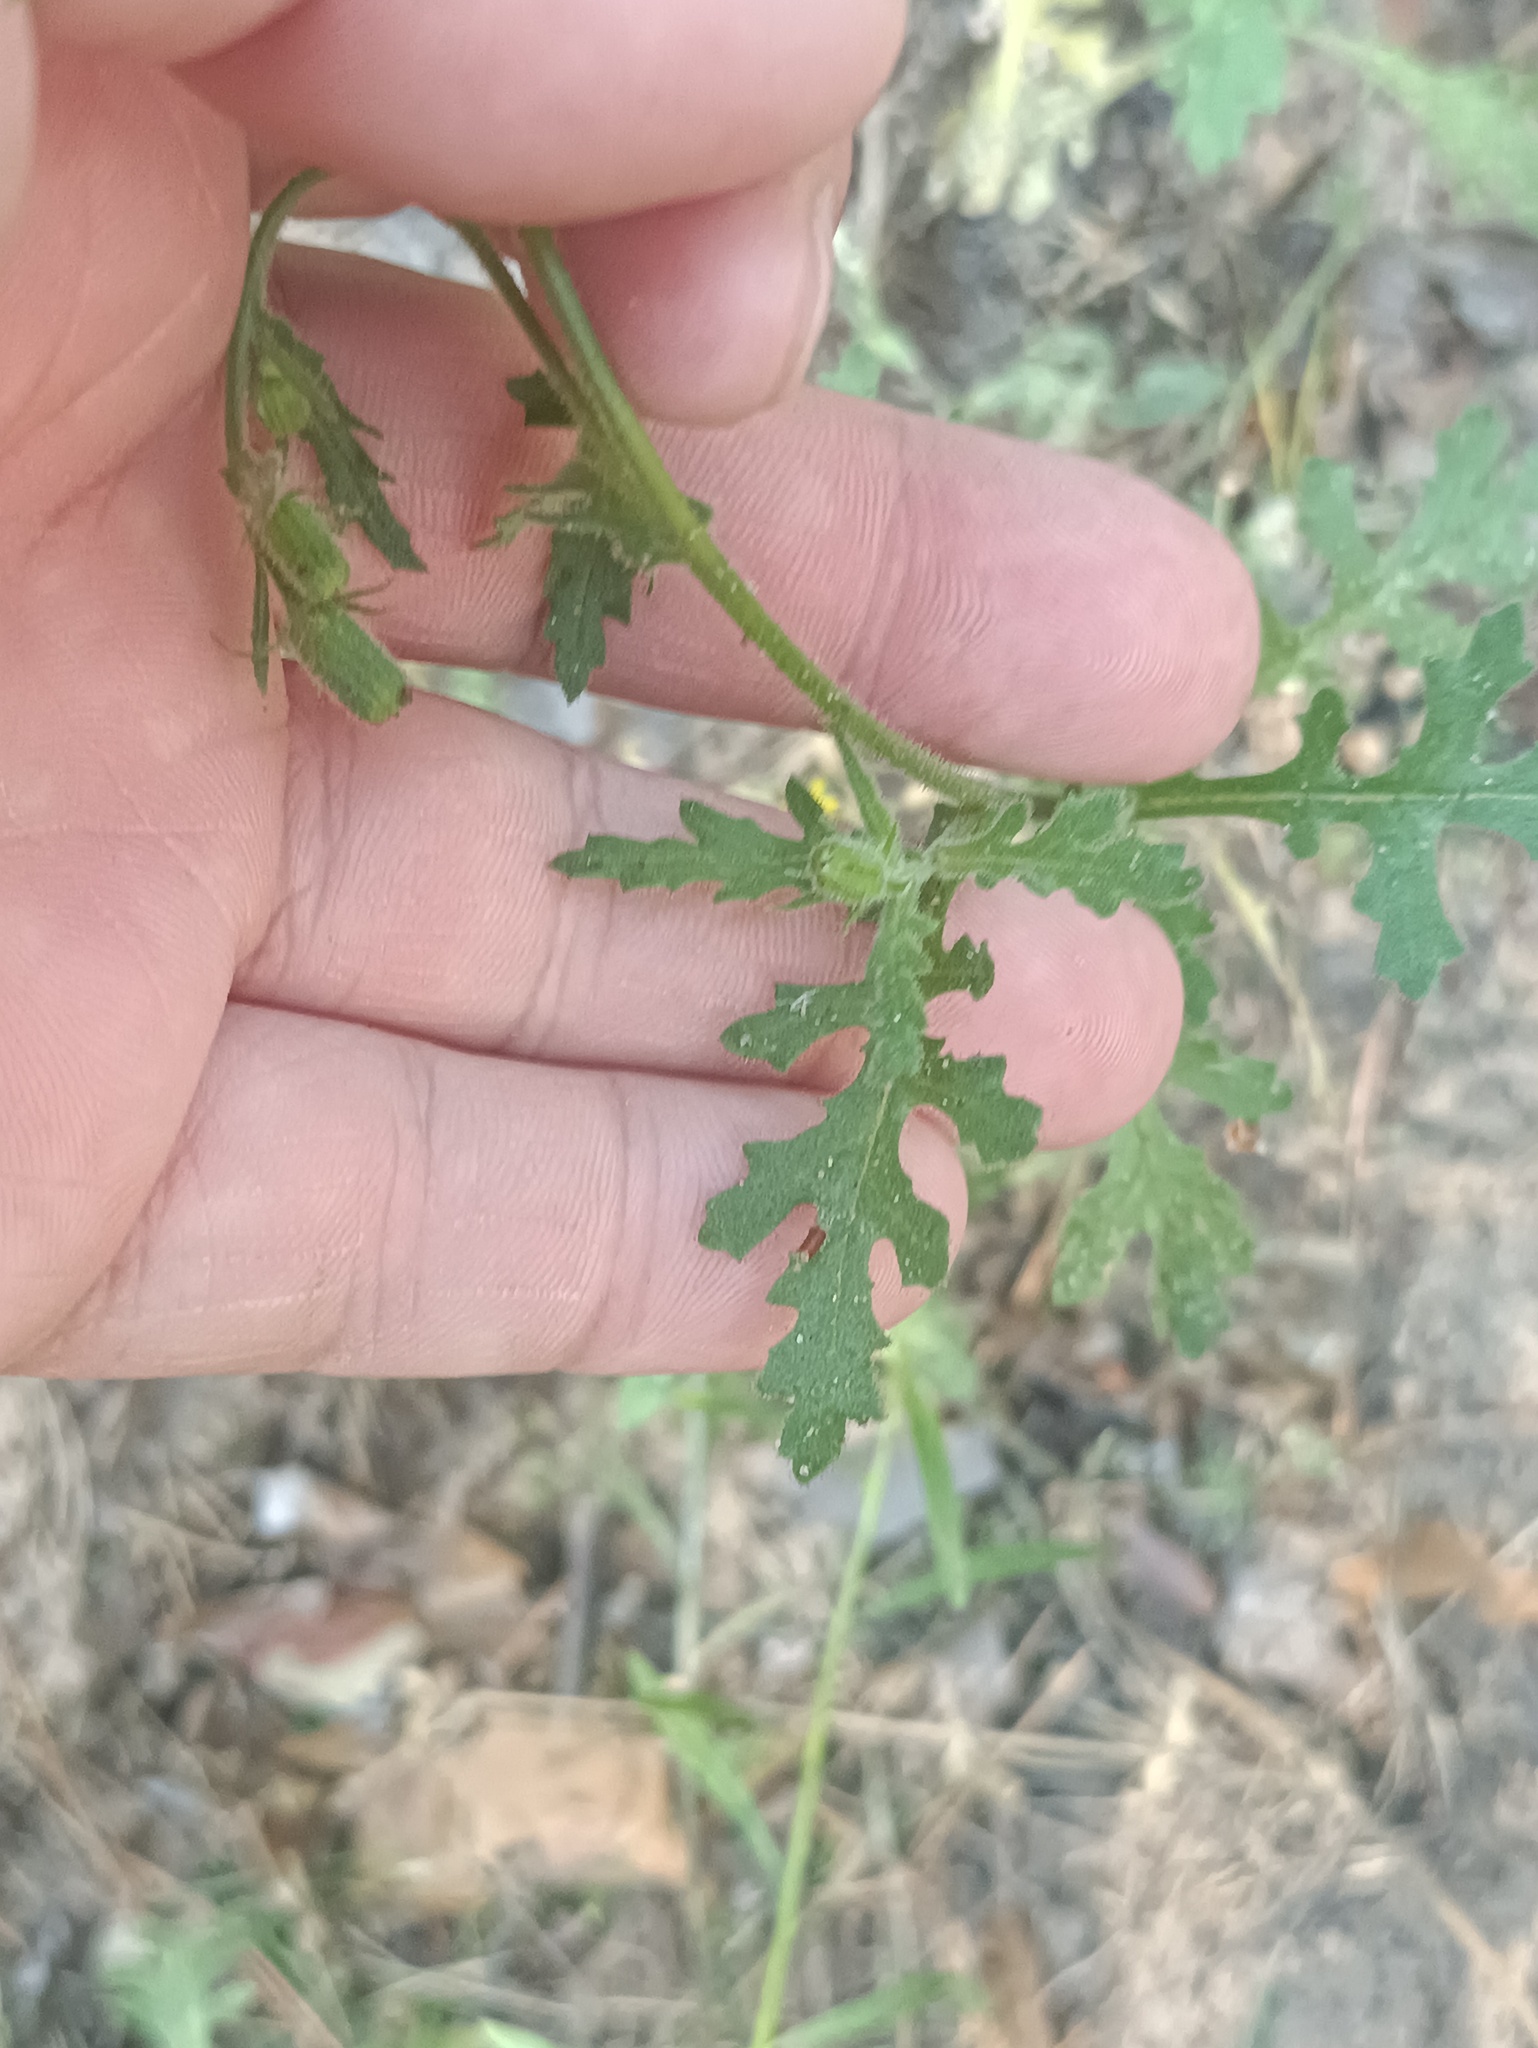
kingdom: Plantae
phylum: Tracheophyta
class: Magnoliopsida
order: Asterales
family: Asteraceae
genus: Senecio
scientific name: Senecio viscosus
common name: Sticky groundsel
